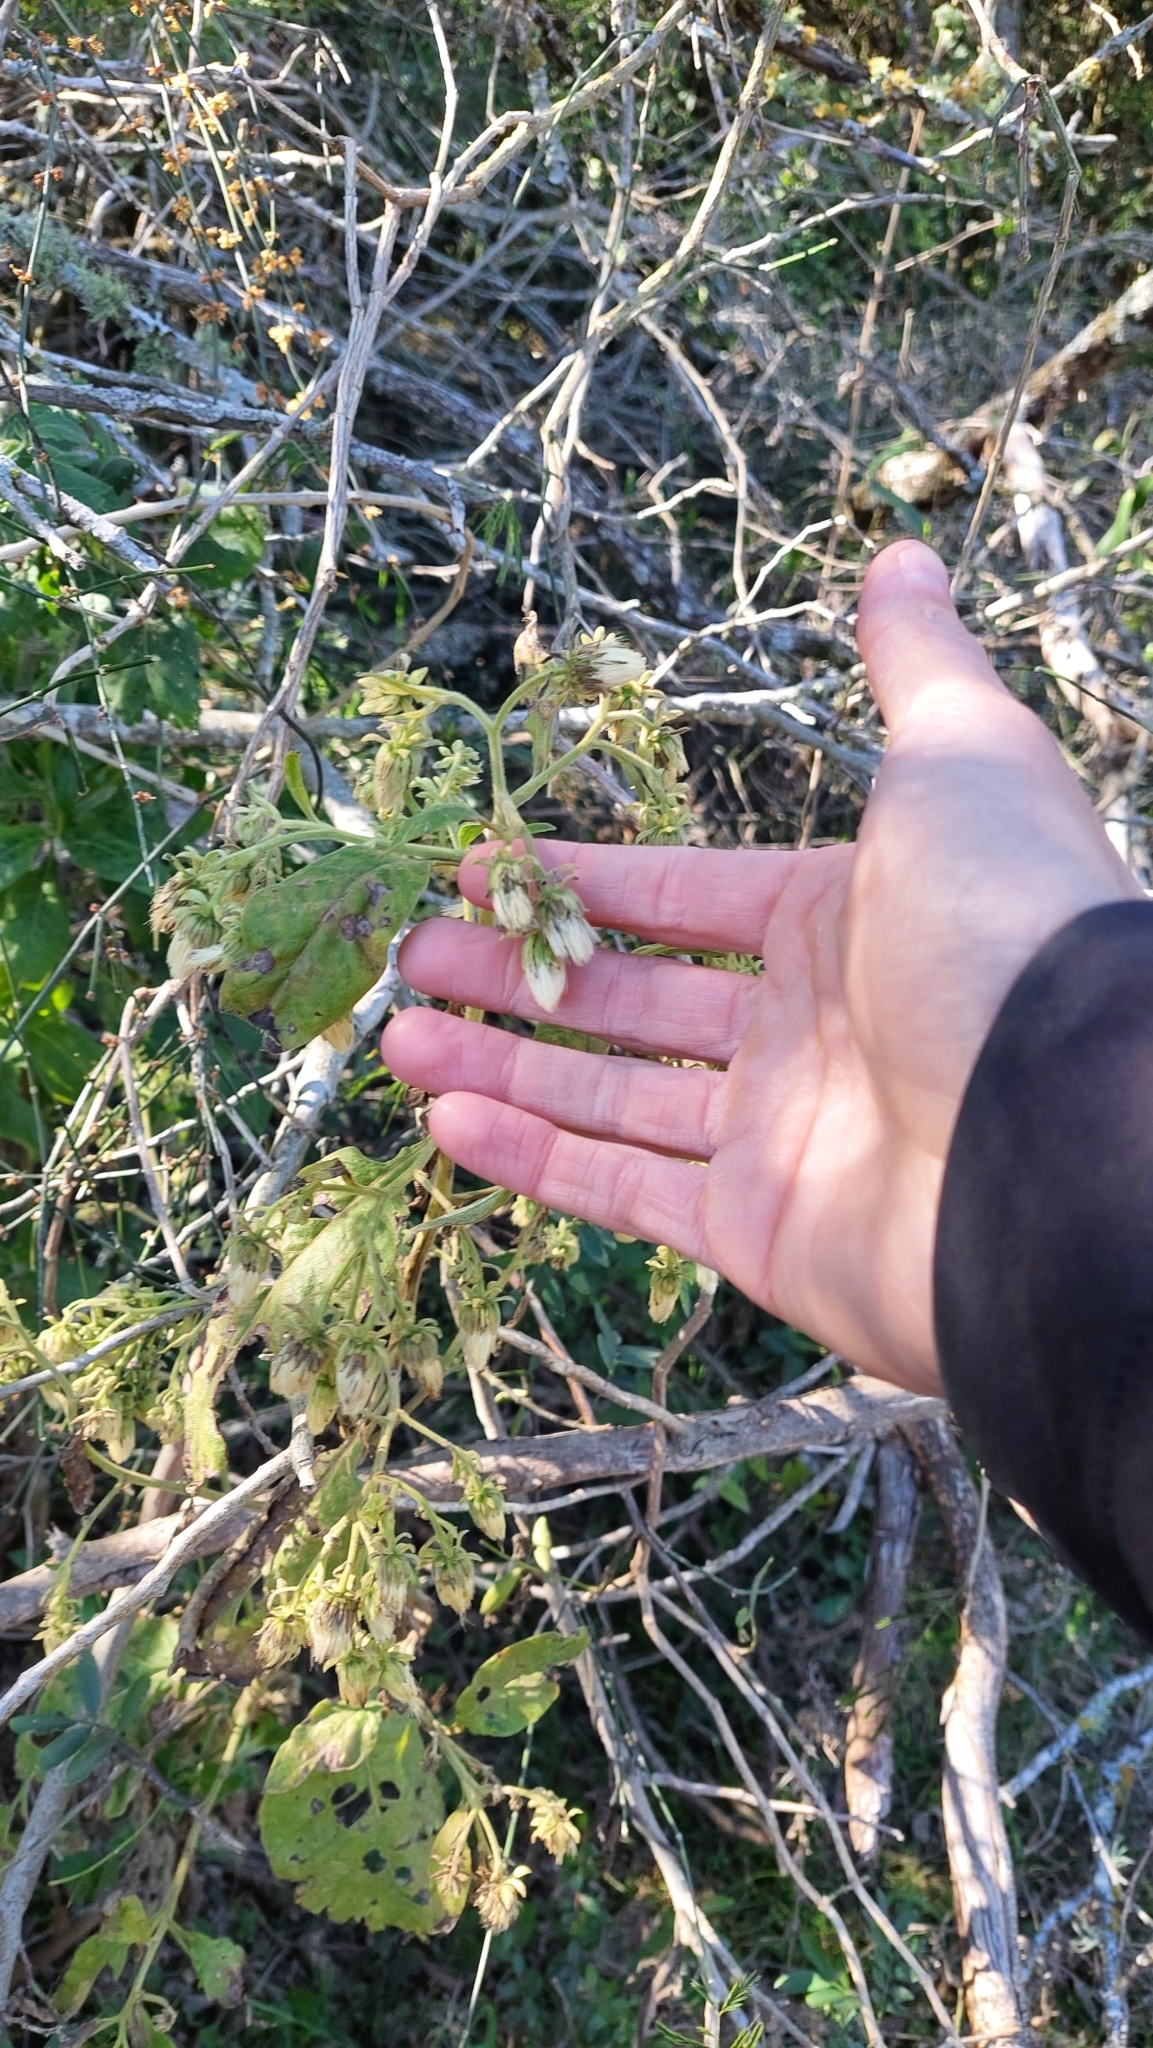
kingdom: Plantae
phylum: Tracheophyta
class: Magnoliopsida
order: Asterales
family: Asteraceae
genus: Trixis
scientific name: Trixis praestans
